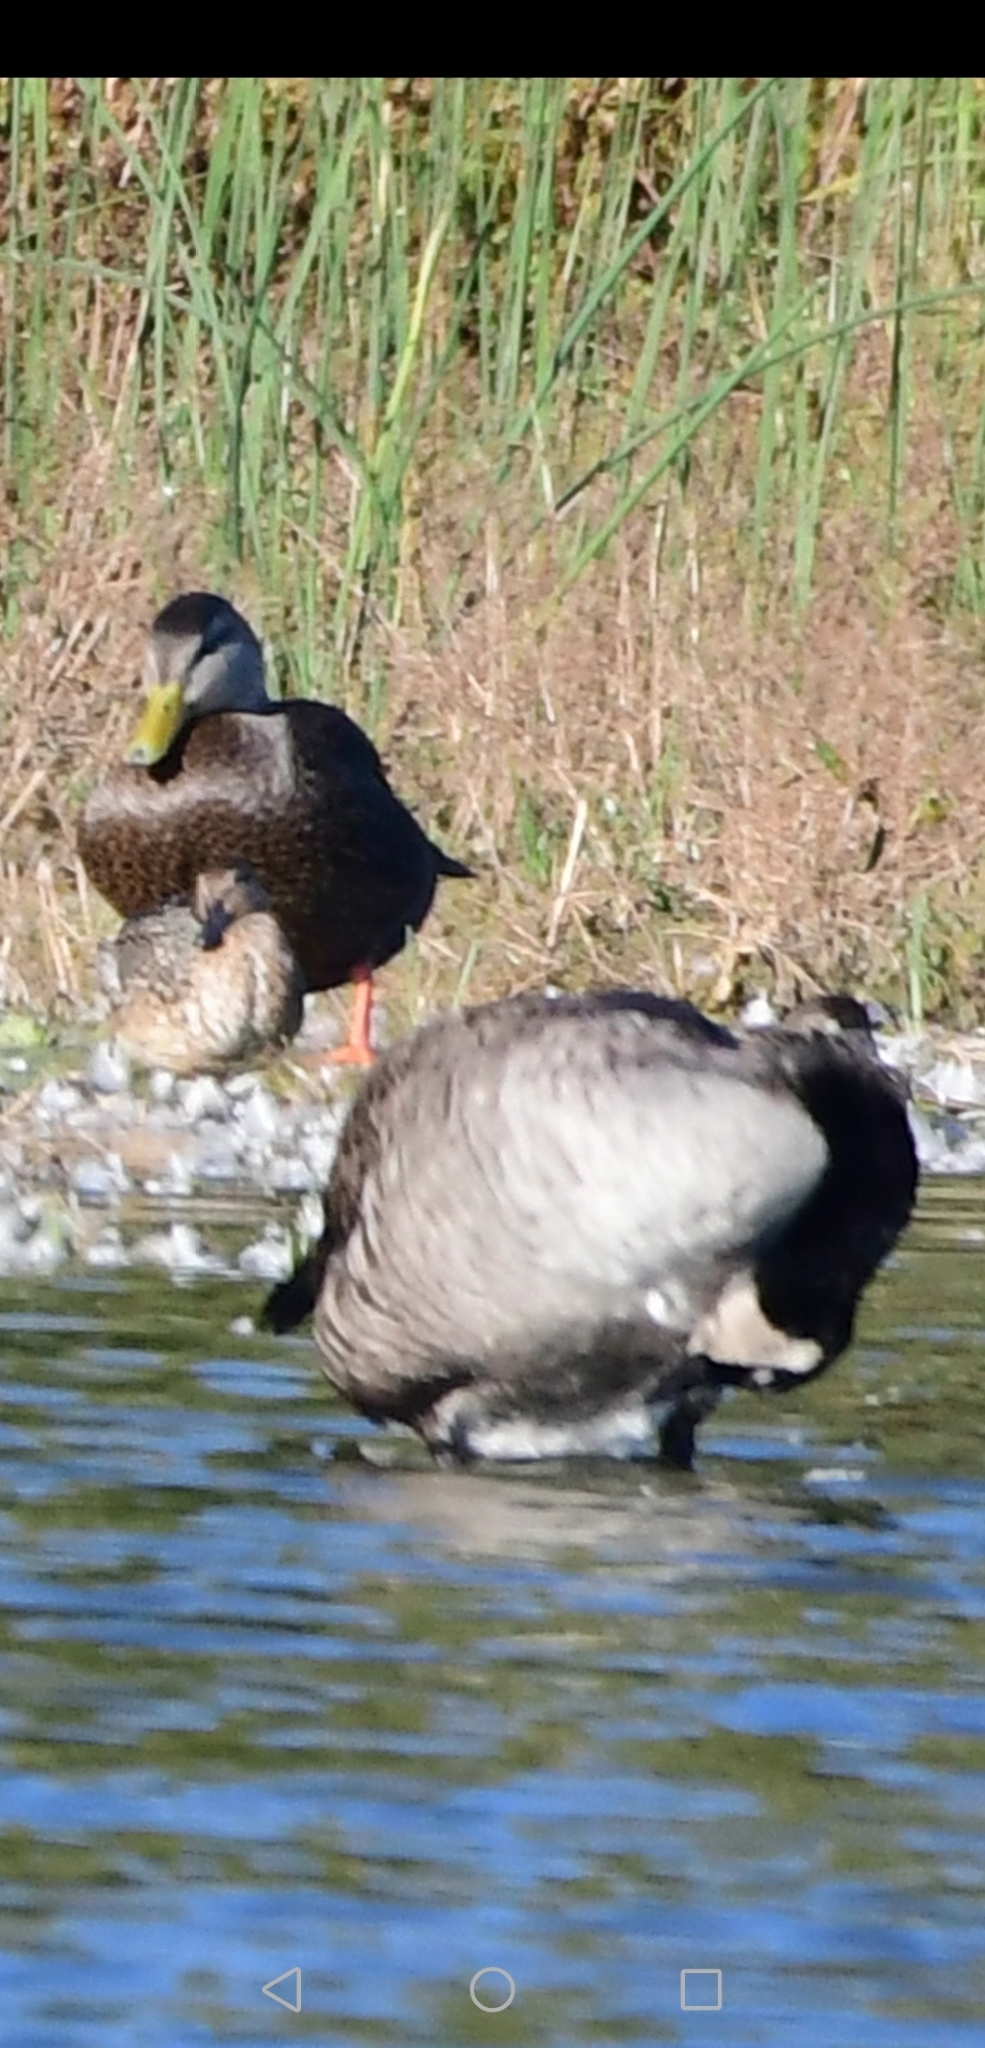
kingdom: Animalia
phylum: Chordata
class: Aves
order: Anseriformes
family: Anatidae
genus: Anas
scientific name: Anas crecca
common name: Eurasian teal
